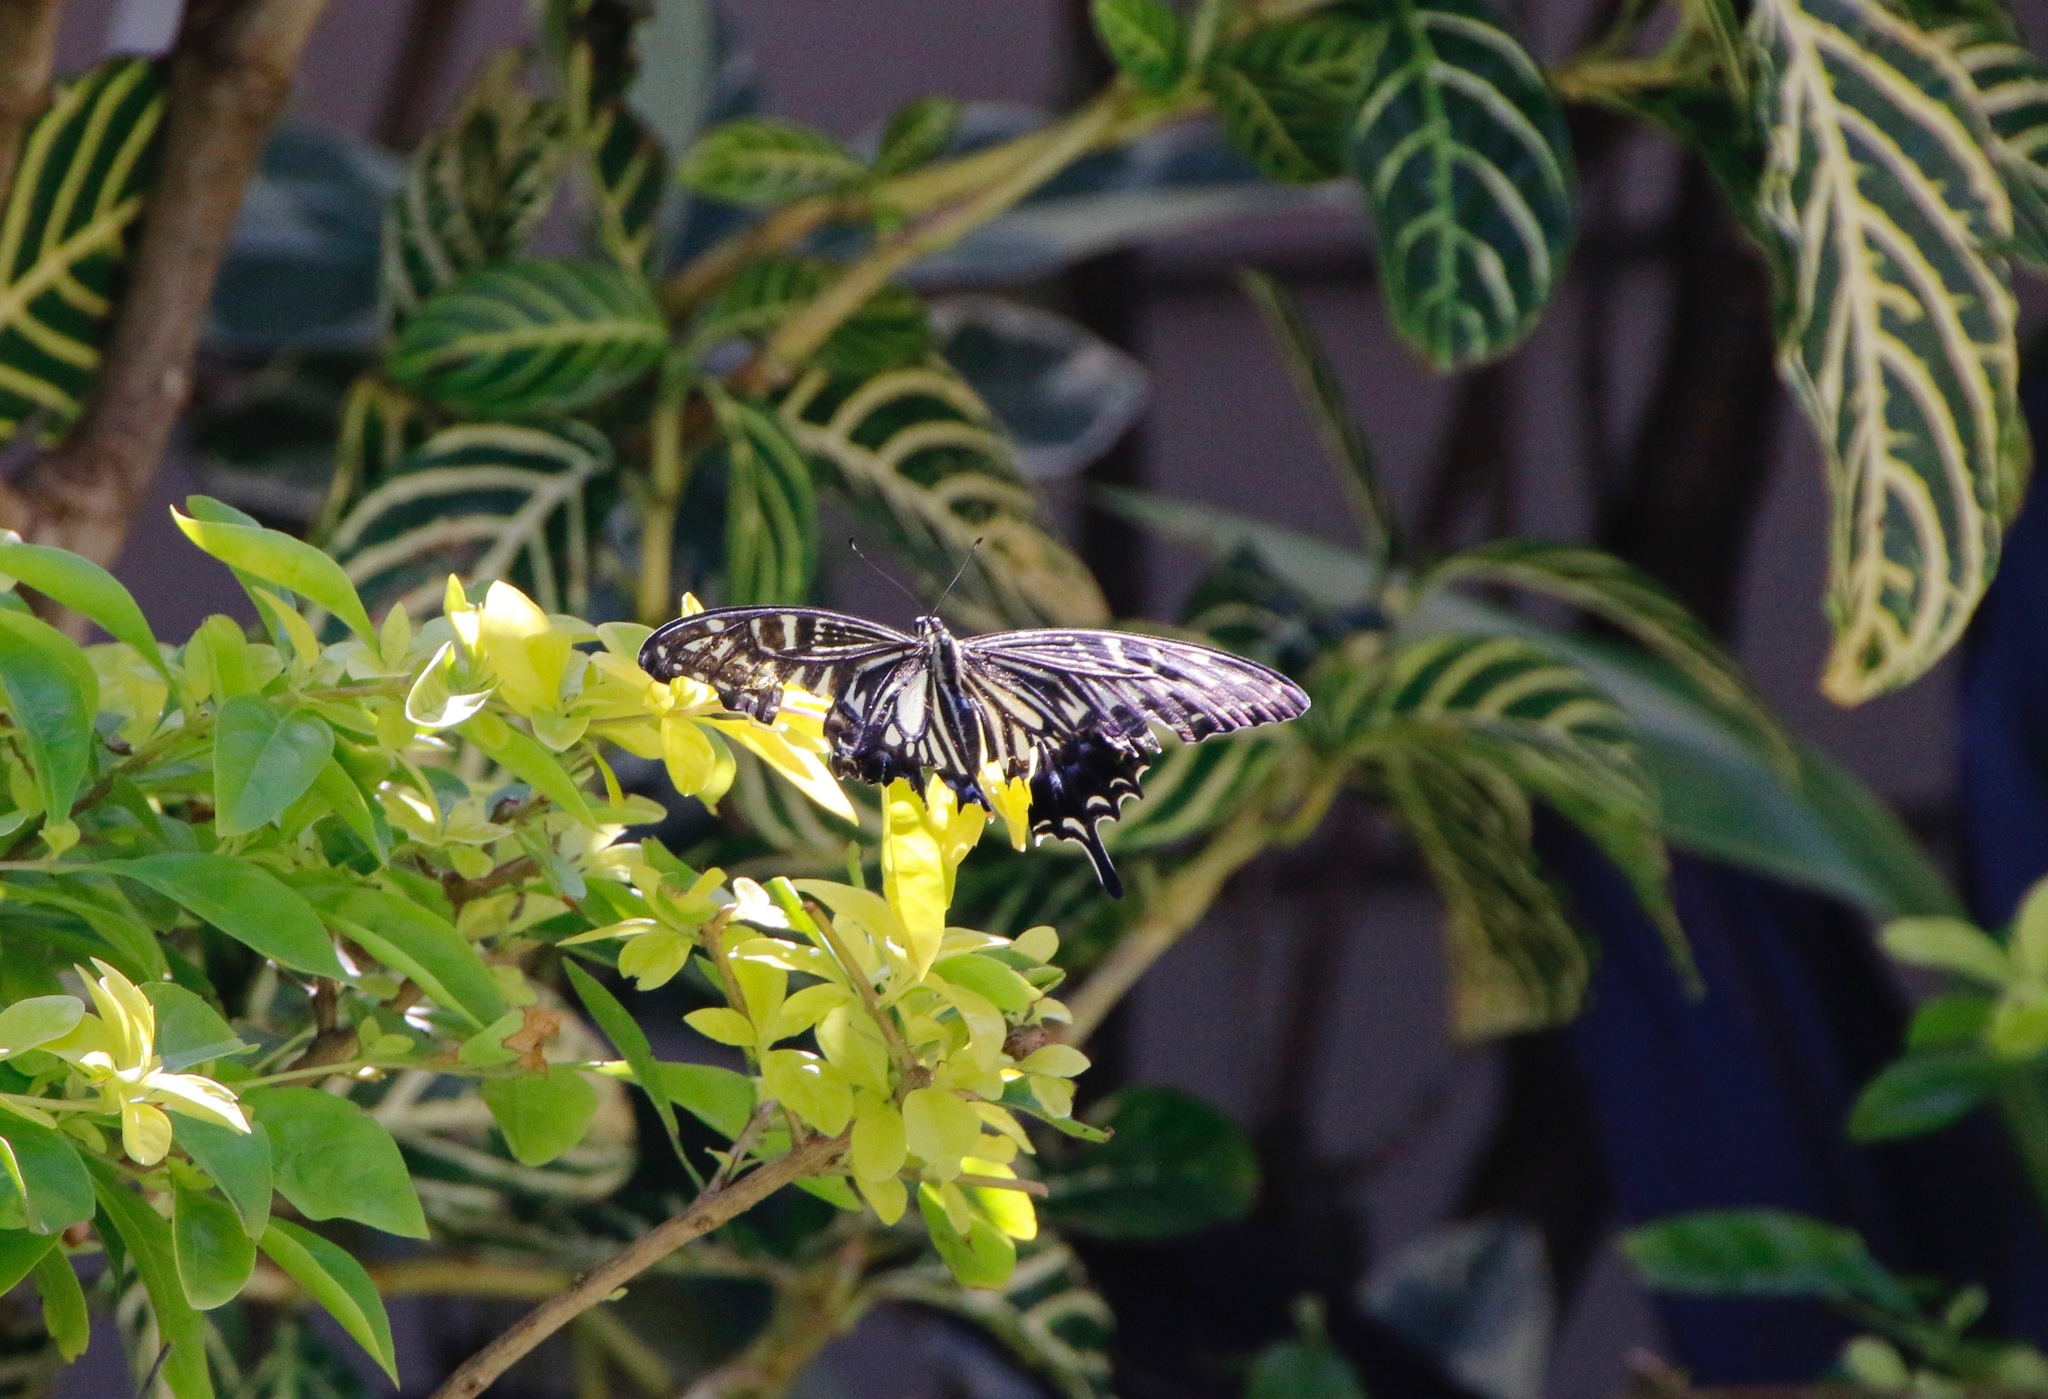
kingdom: Animalia
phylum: Arthropoda
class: Insecta
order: Lepidoptera
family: Papilionidae
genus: Papilio
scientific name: Papilio xuthus
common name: Asian swallowtail
